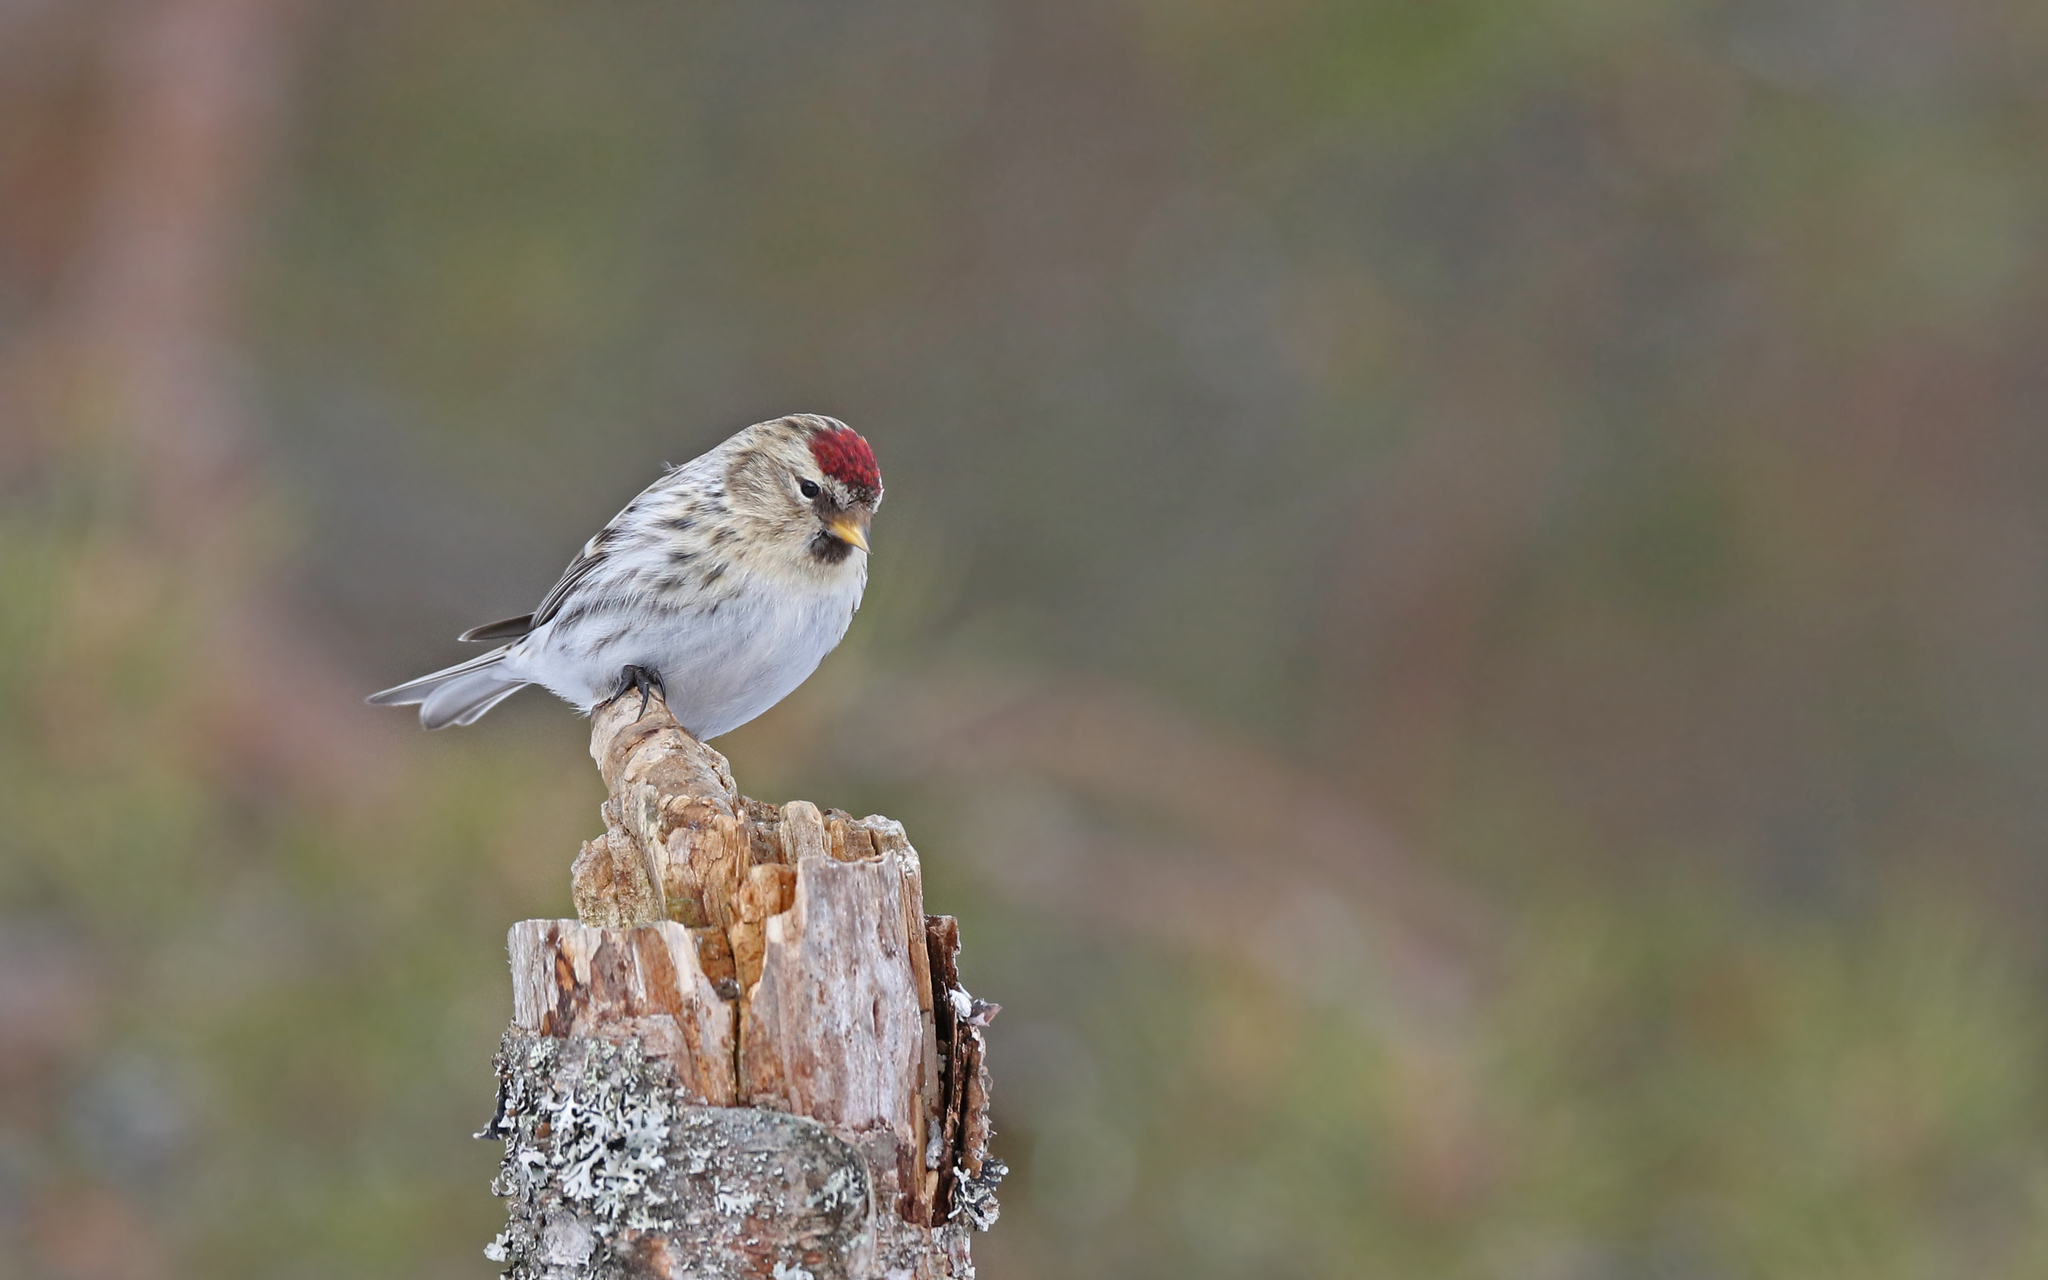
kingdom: Animalia
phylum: Chordata
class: Aves
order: Passeriformes
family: Fringillidae
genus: Acanthis
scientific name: Acanthis flammea
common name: Common redpoll
